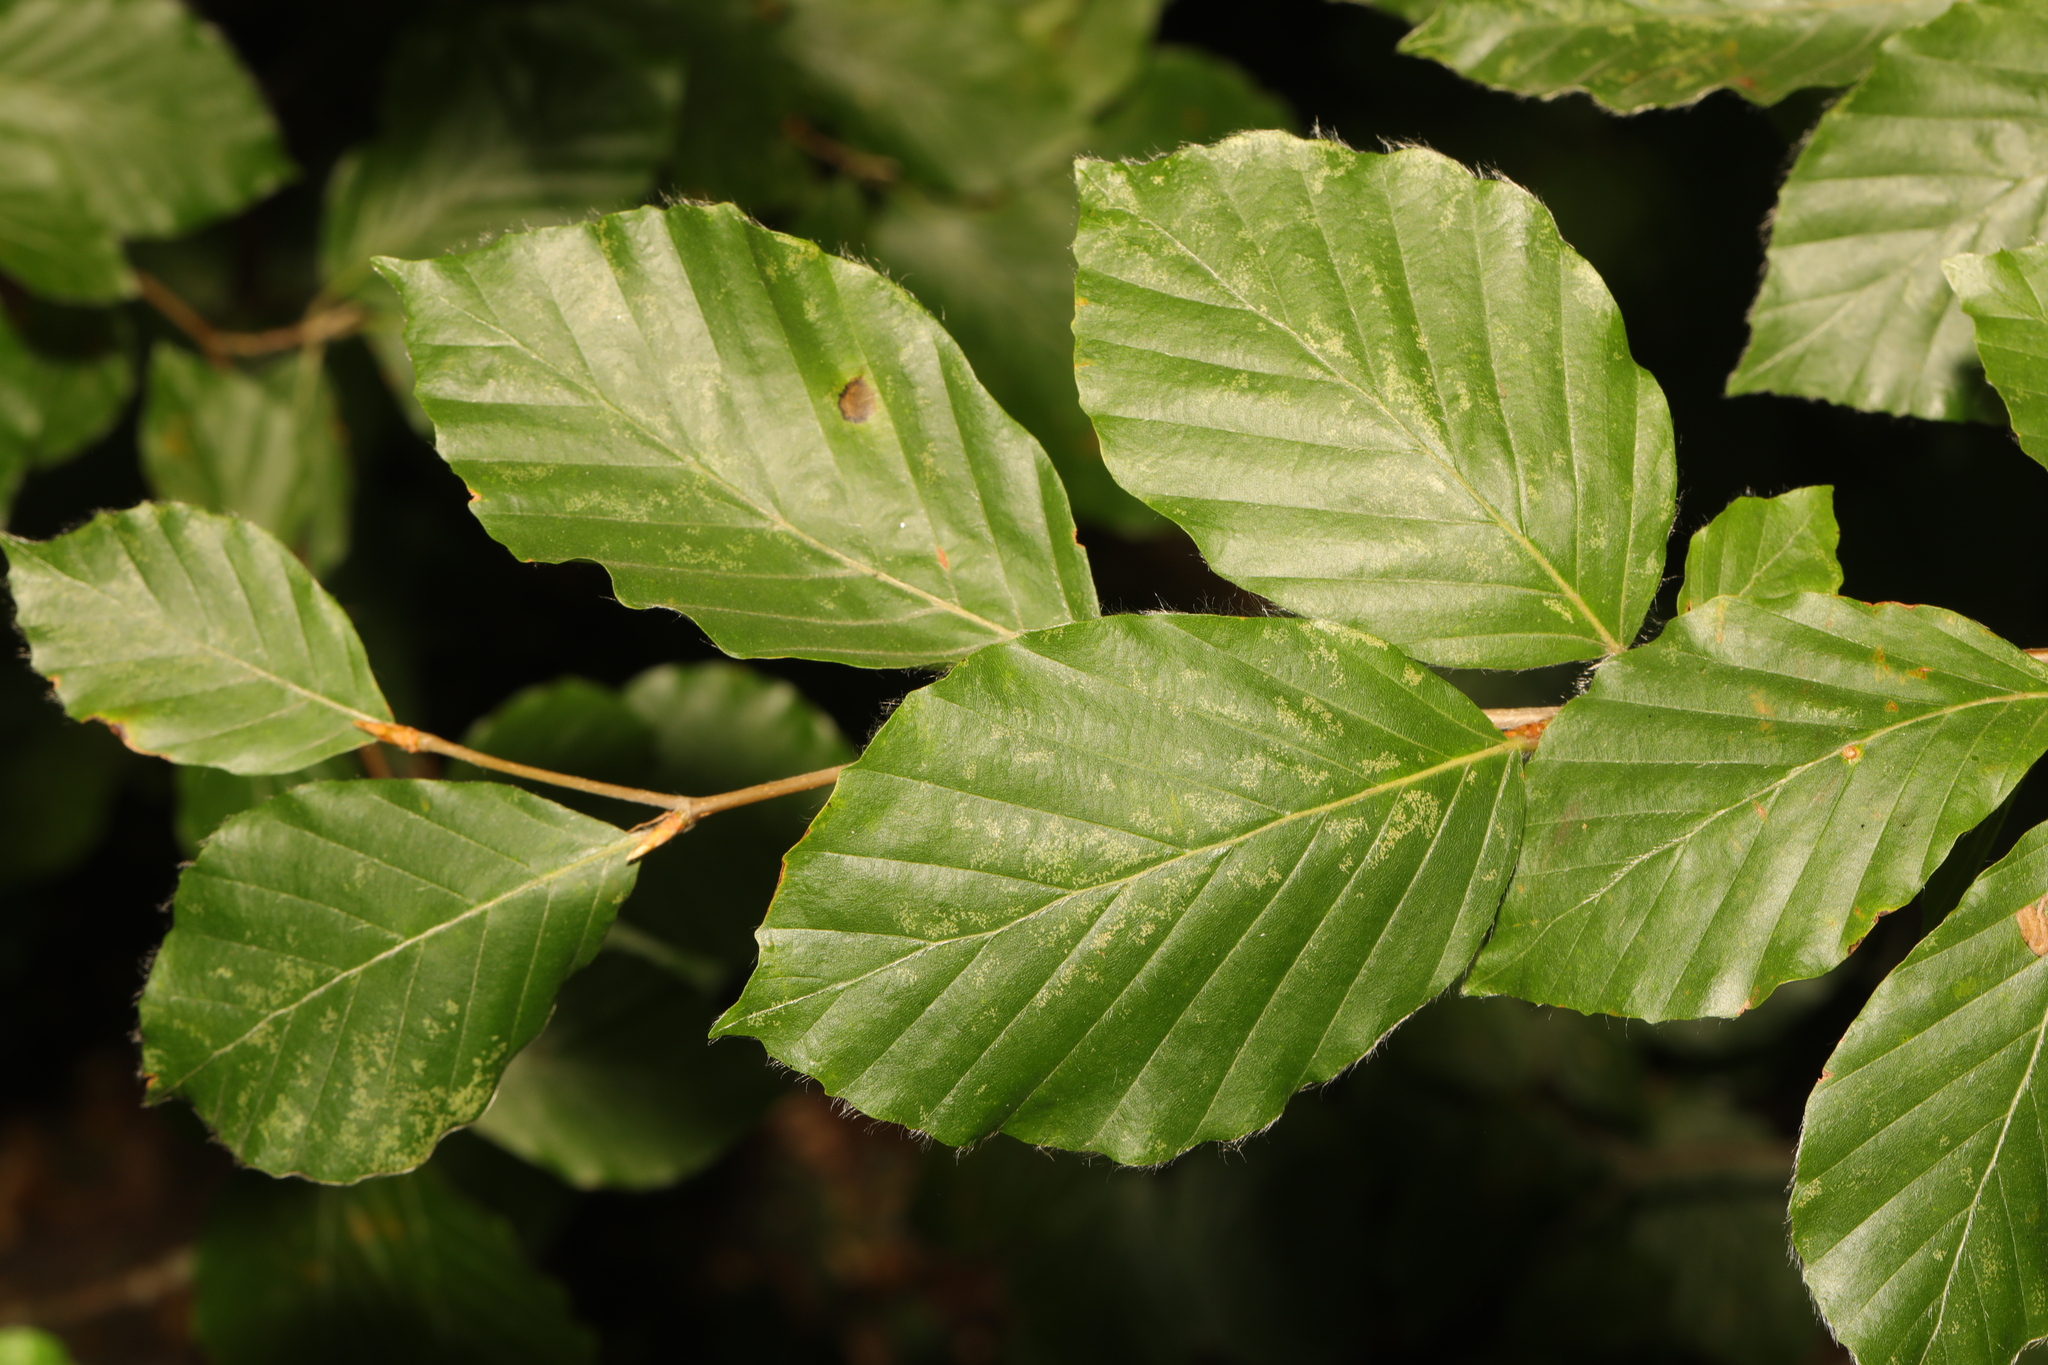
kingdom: Plantae
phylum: Tracheophyta
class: Magnoliopsida
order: Fagales
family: Fagaceae
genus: Fagus
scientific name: Fagus sylvatica
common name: Beech
